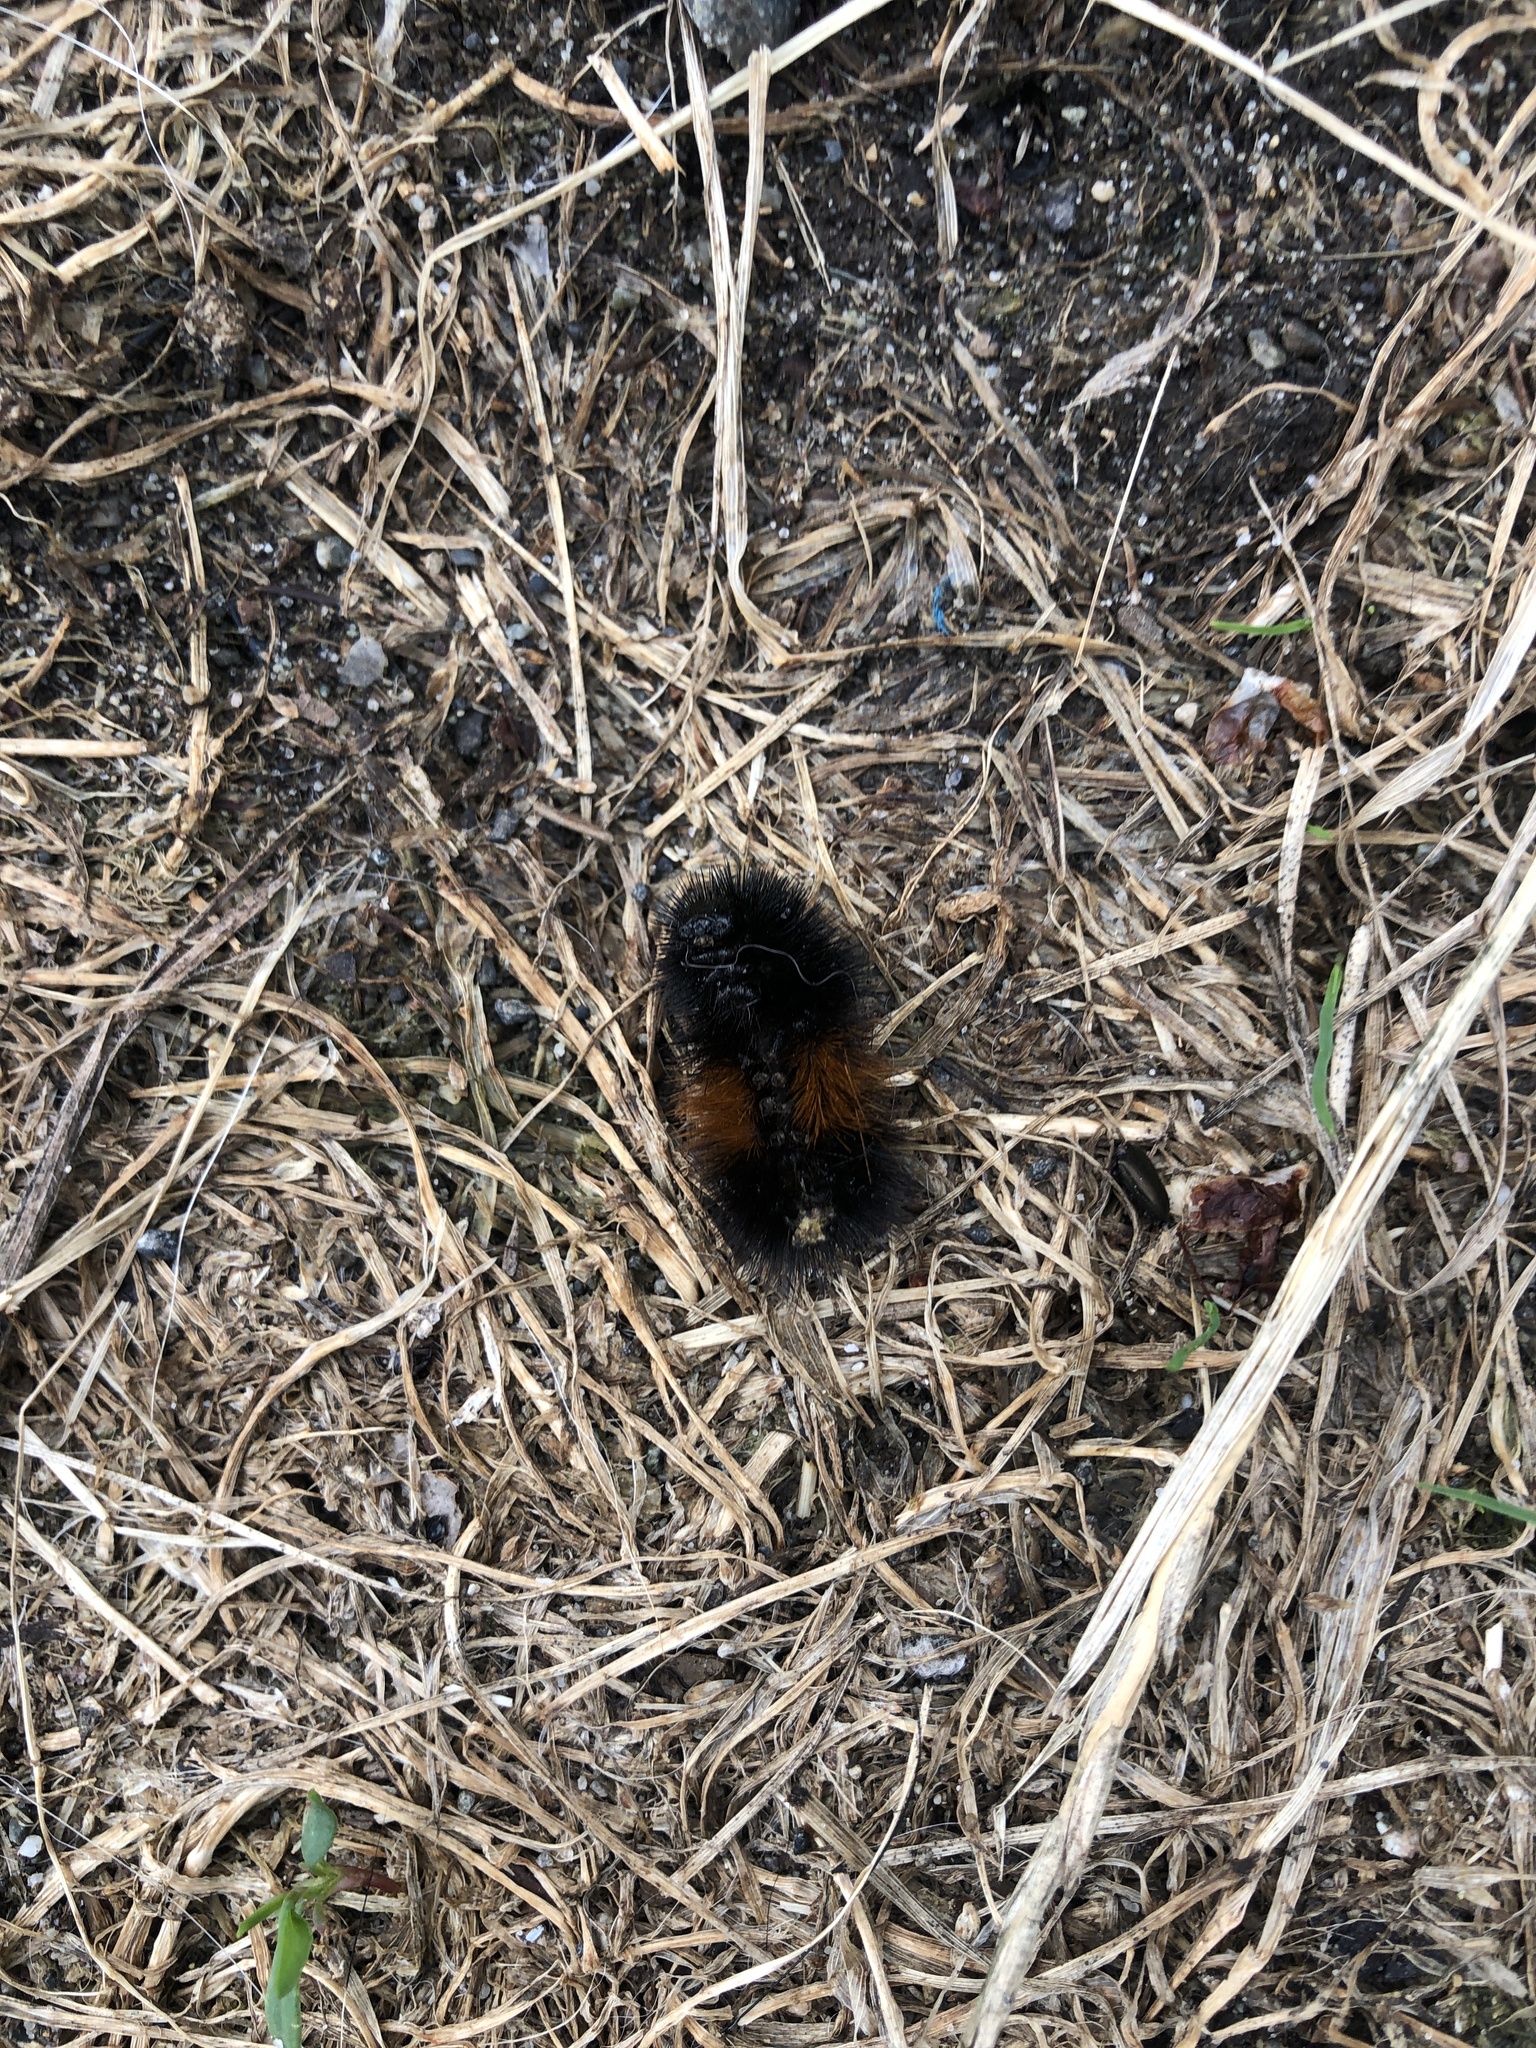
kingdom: Animalia
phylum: Arthropoda
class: Insecta
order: Lepidoptera
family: Erebidae
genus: Pyrrharctia
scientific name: Pyrrharctia isabella
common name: Isabella tiger moth
